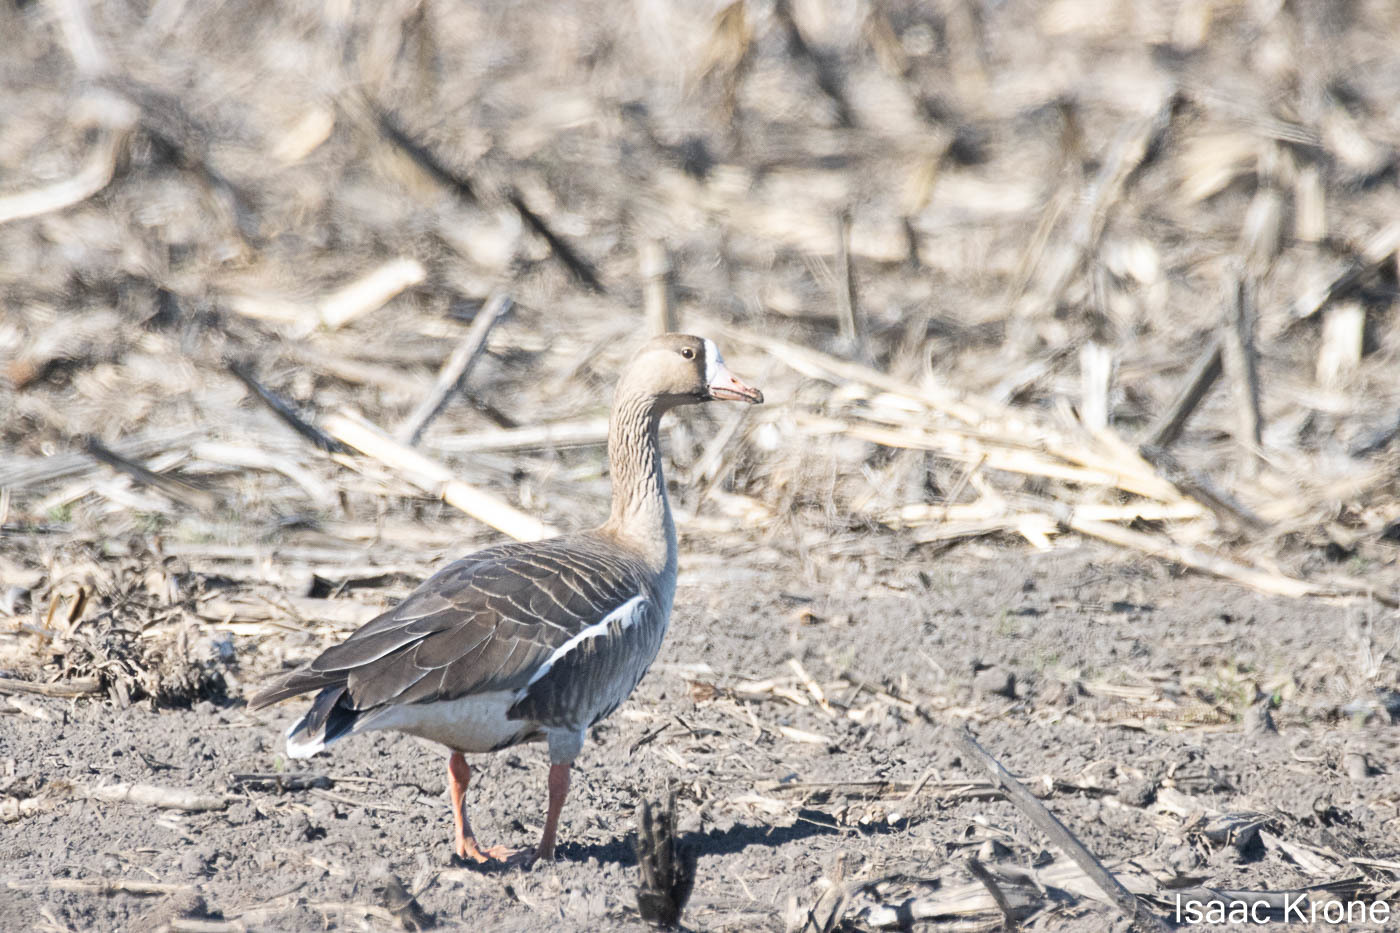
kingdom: Animalia
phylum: Chordata
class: Aves
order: Anseriformes
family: Anatidae
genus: Anser
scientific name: Anser albifrons
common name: Greater white-fronted goose
